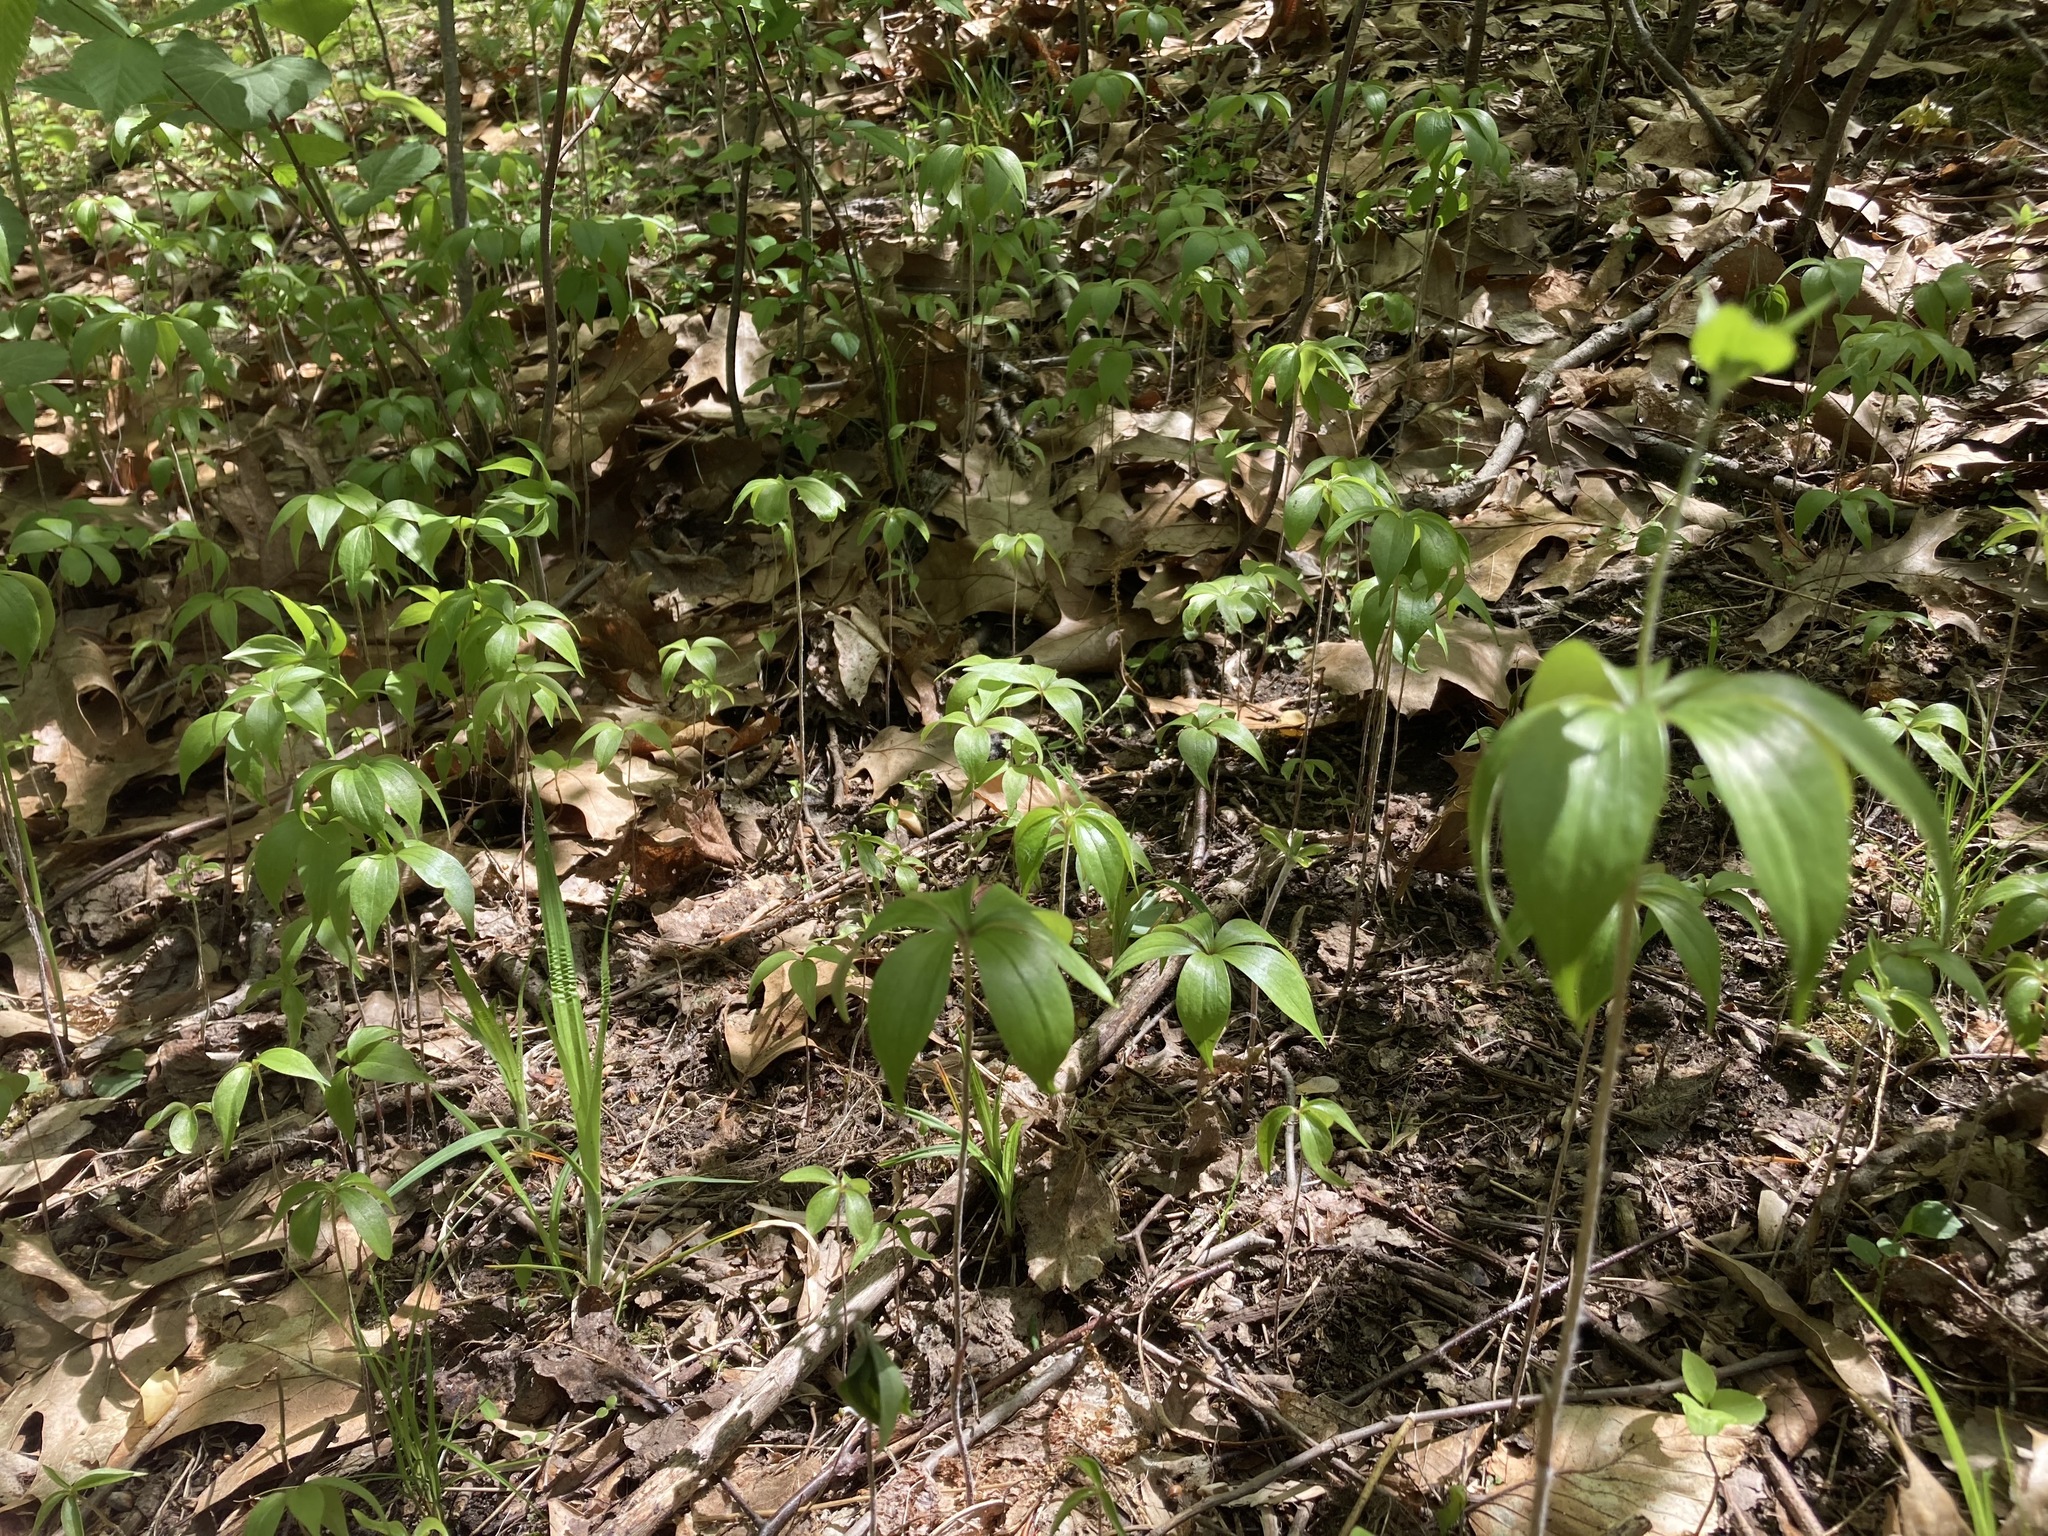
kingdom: Plantae
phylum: Tracheophyta
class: Liliopsida
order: Liliales
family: Liliaceae
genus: Medeola
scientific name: Medeola virginiana
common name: Indian cucumber-root
